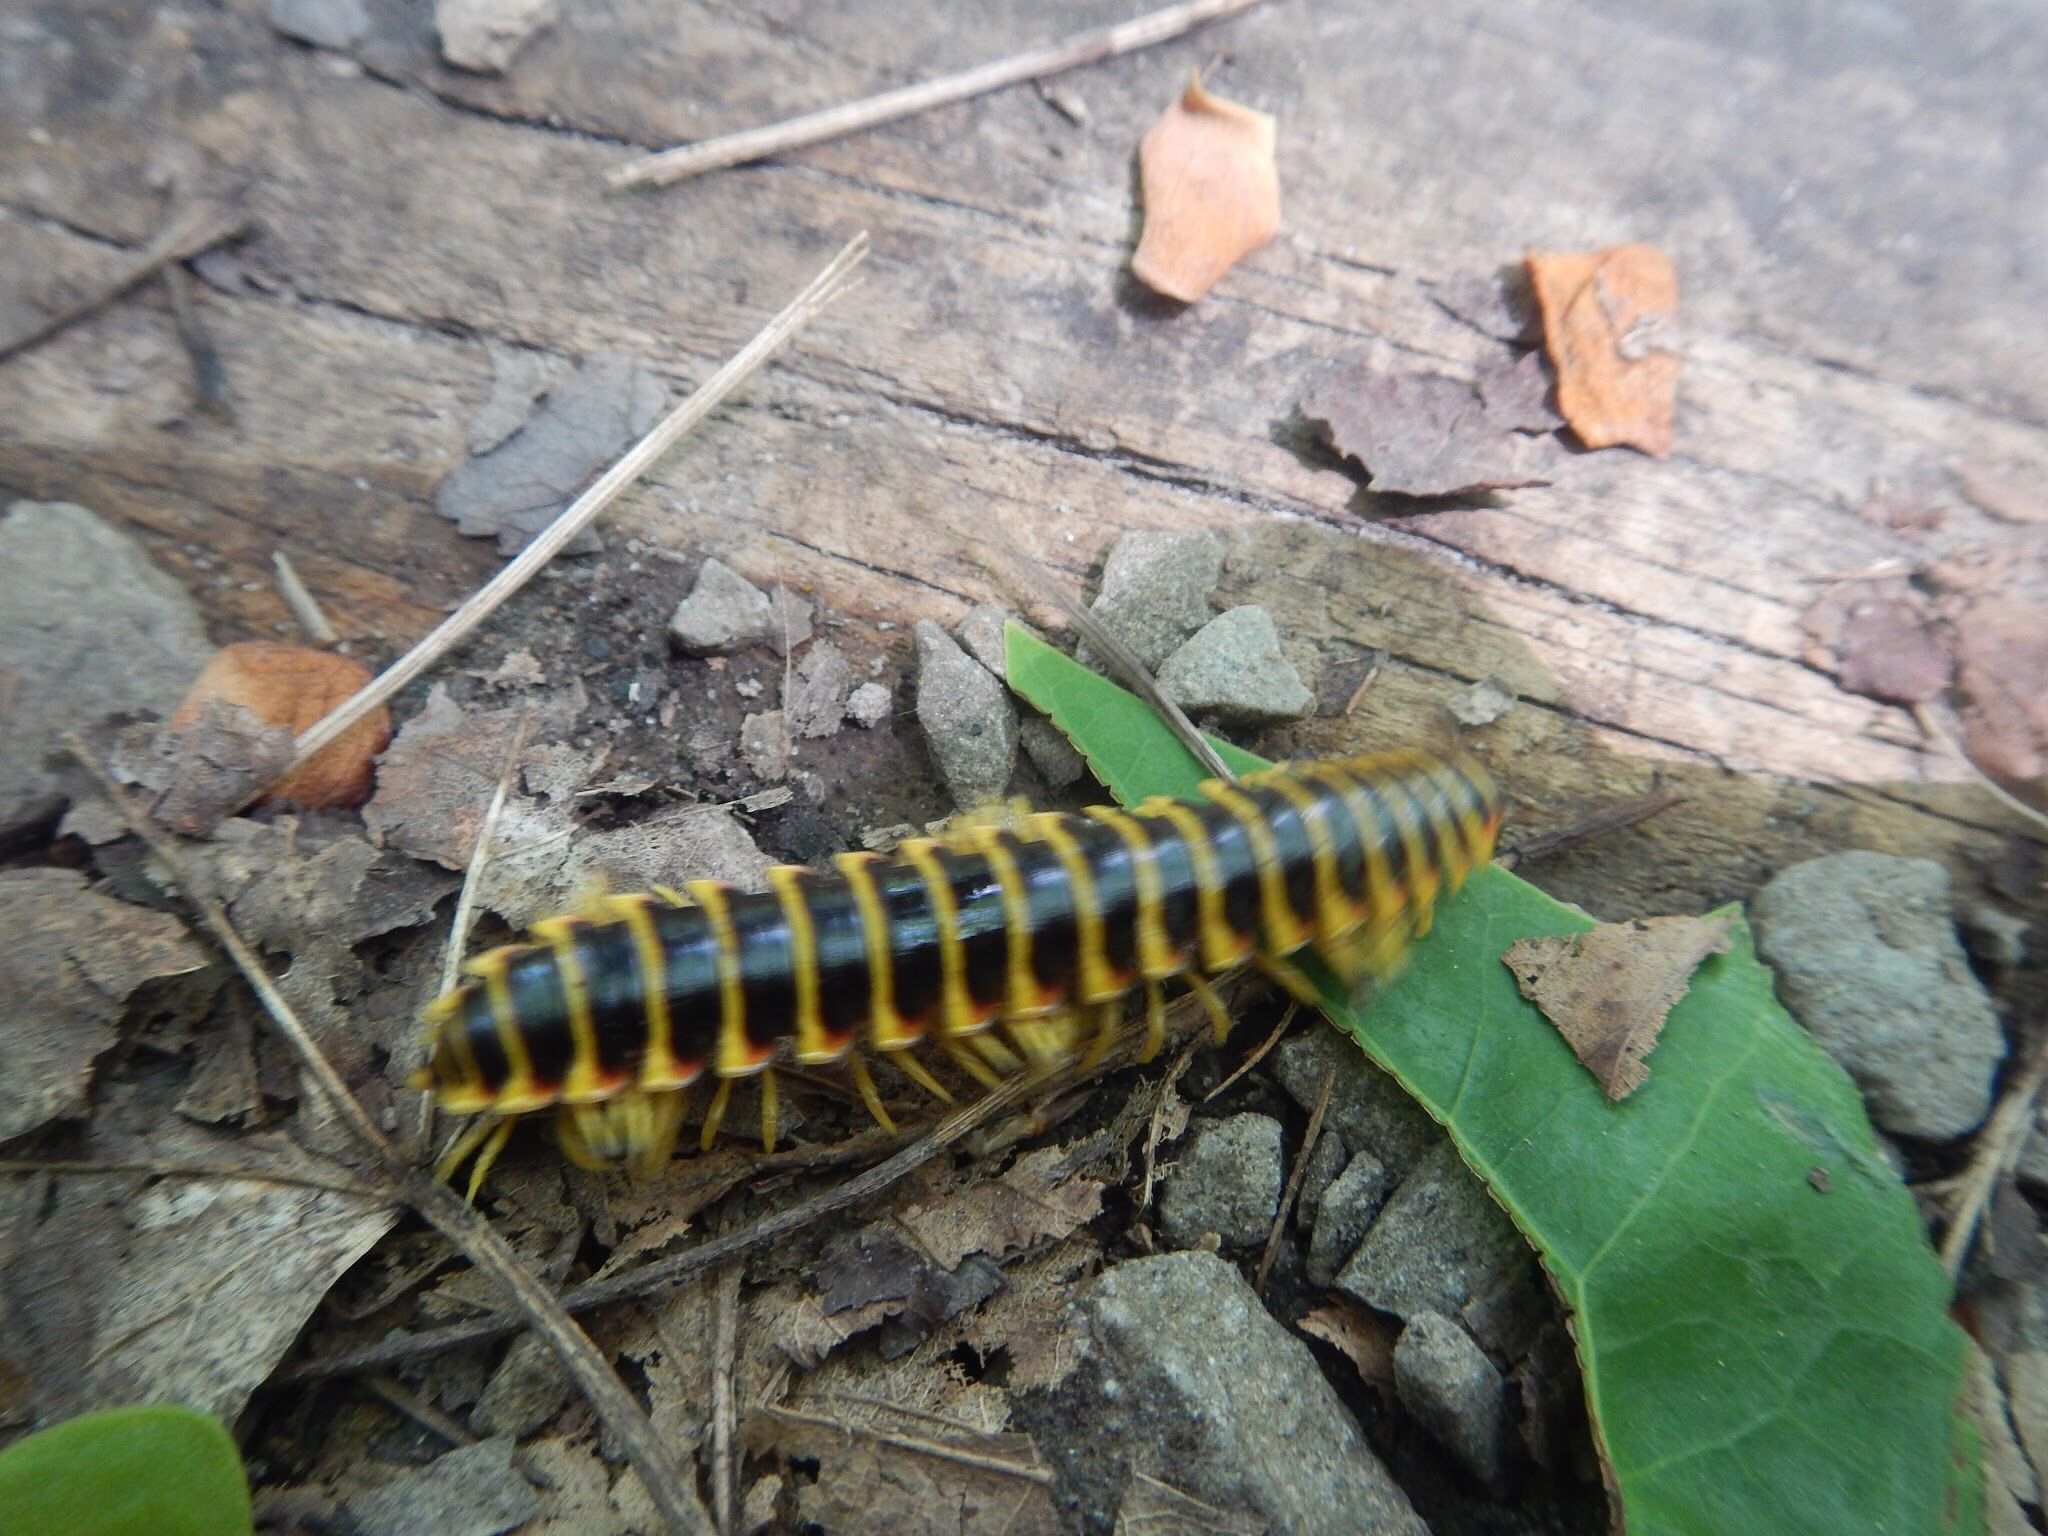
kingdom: Animalia
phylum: Arthropoda
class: Diplopoda
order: Polydesmida
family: Xystodesmidae
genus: Apheloria
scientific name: Apheloria virginiensis
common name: Black-and-gold flat millipede
